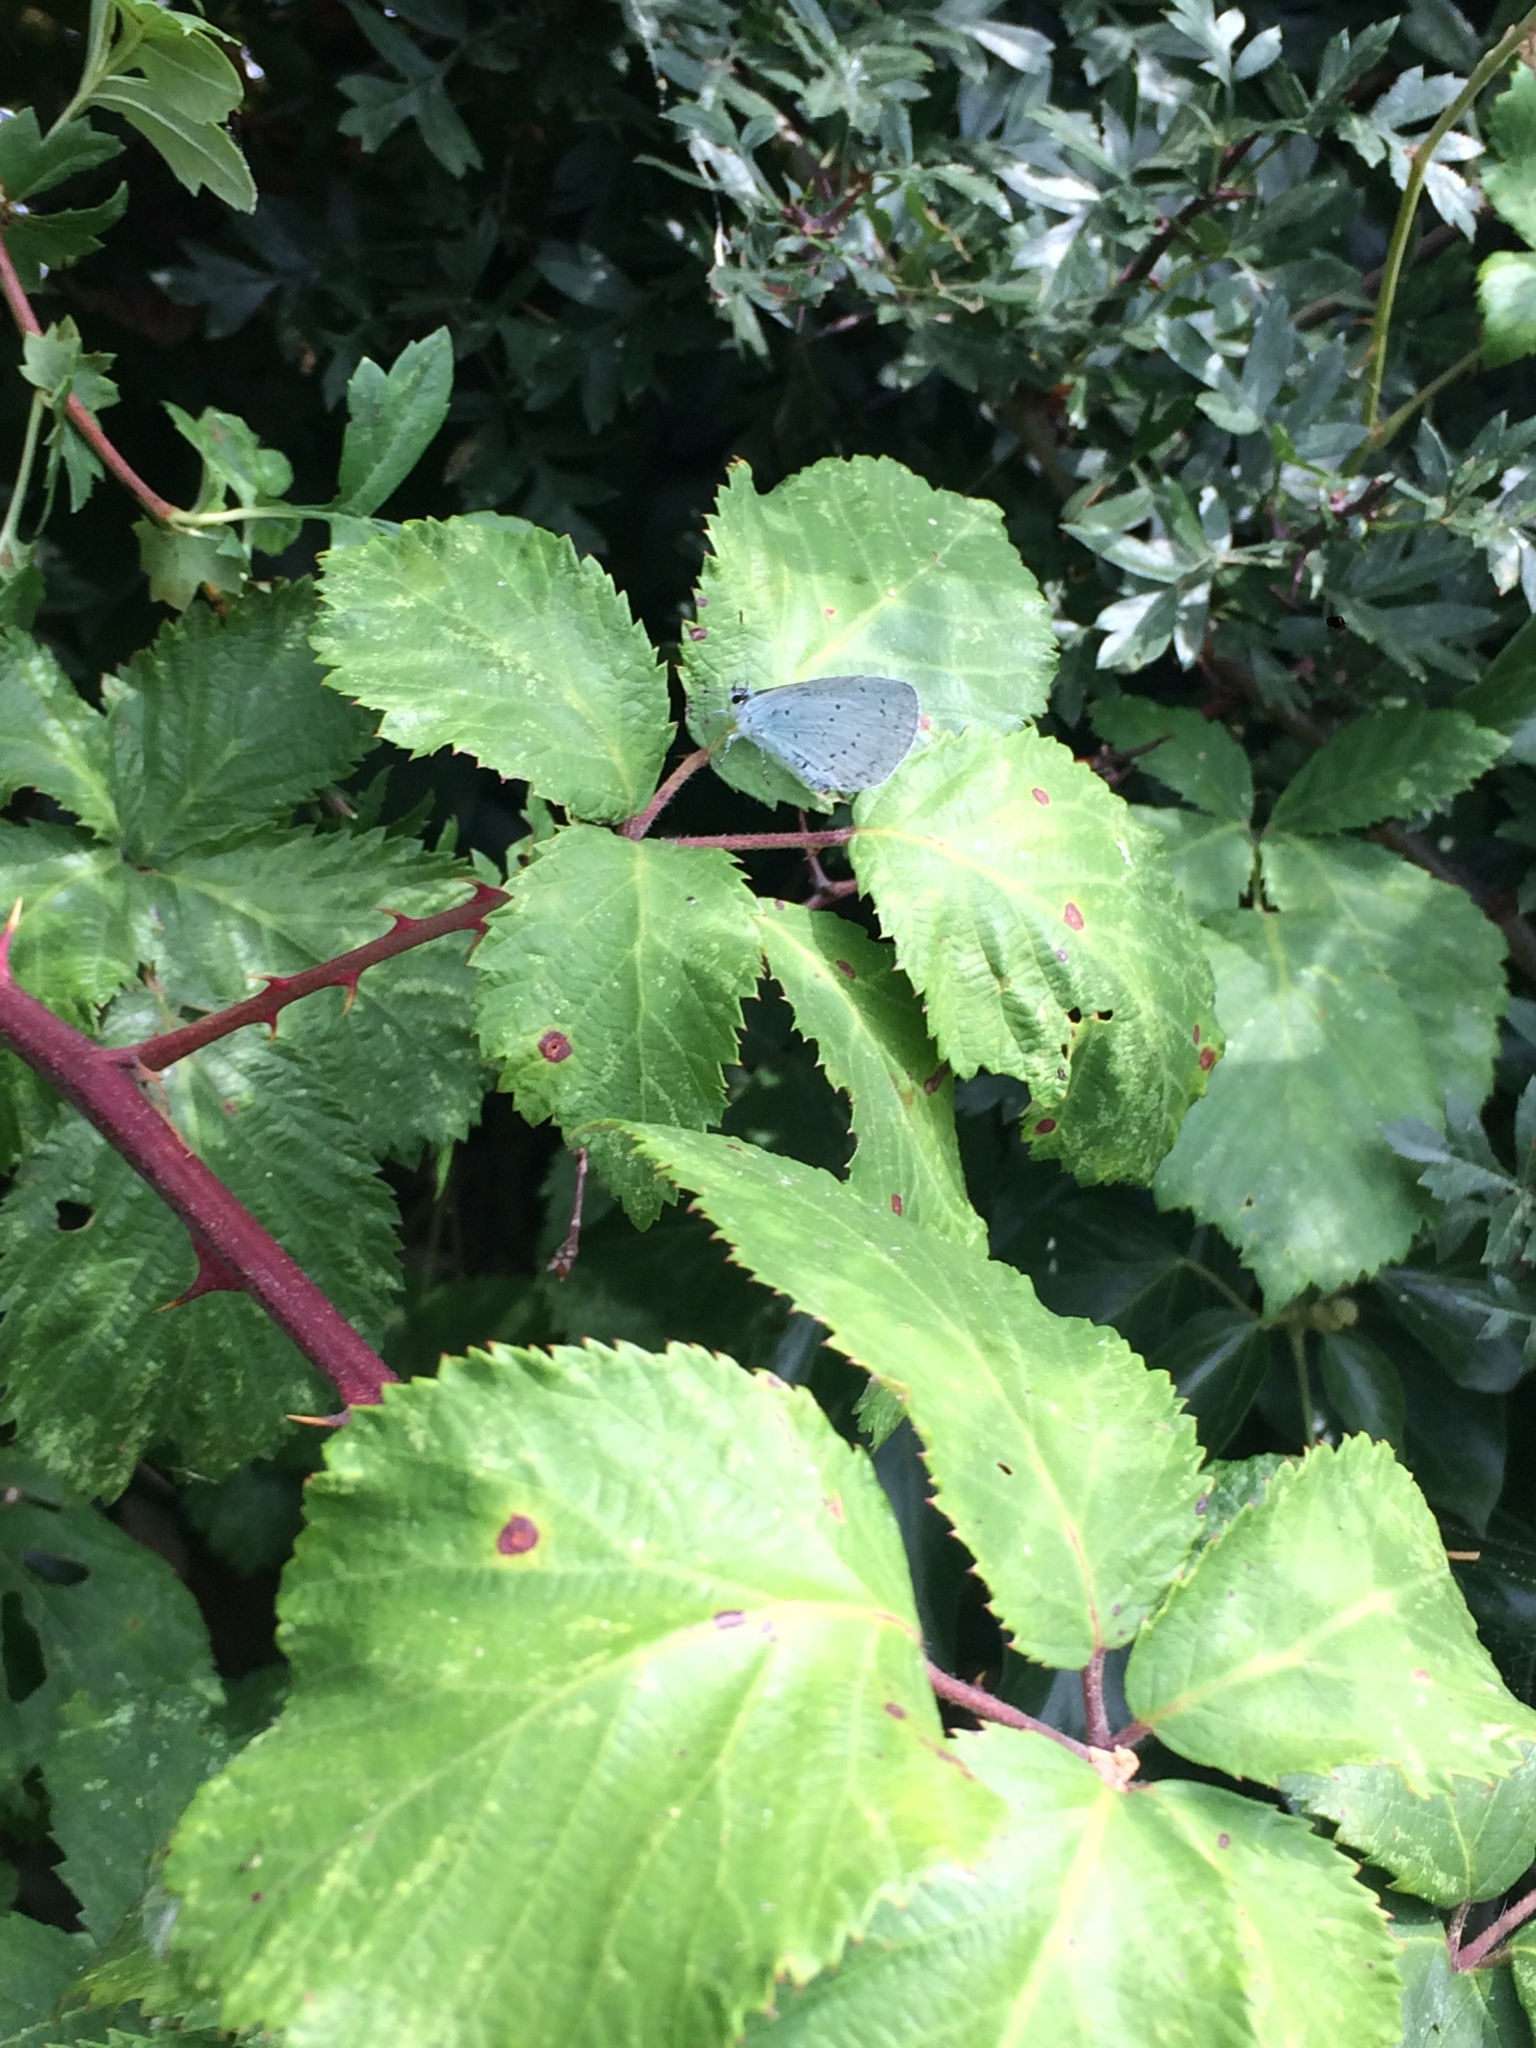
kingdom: Animalia
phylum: Arthropoda
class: Insecta
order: Lepidoptera
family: Lycaenidae
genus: Celastrina
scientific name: Celastrina argiolus
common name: Holly blue
